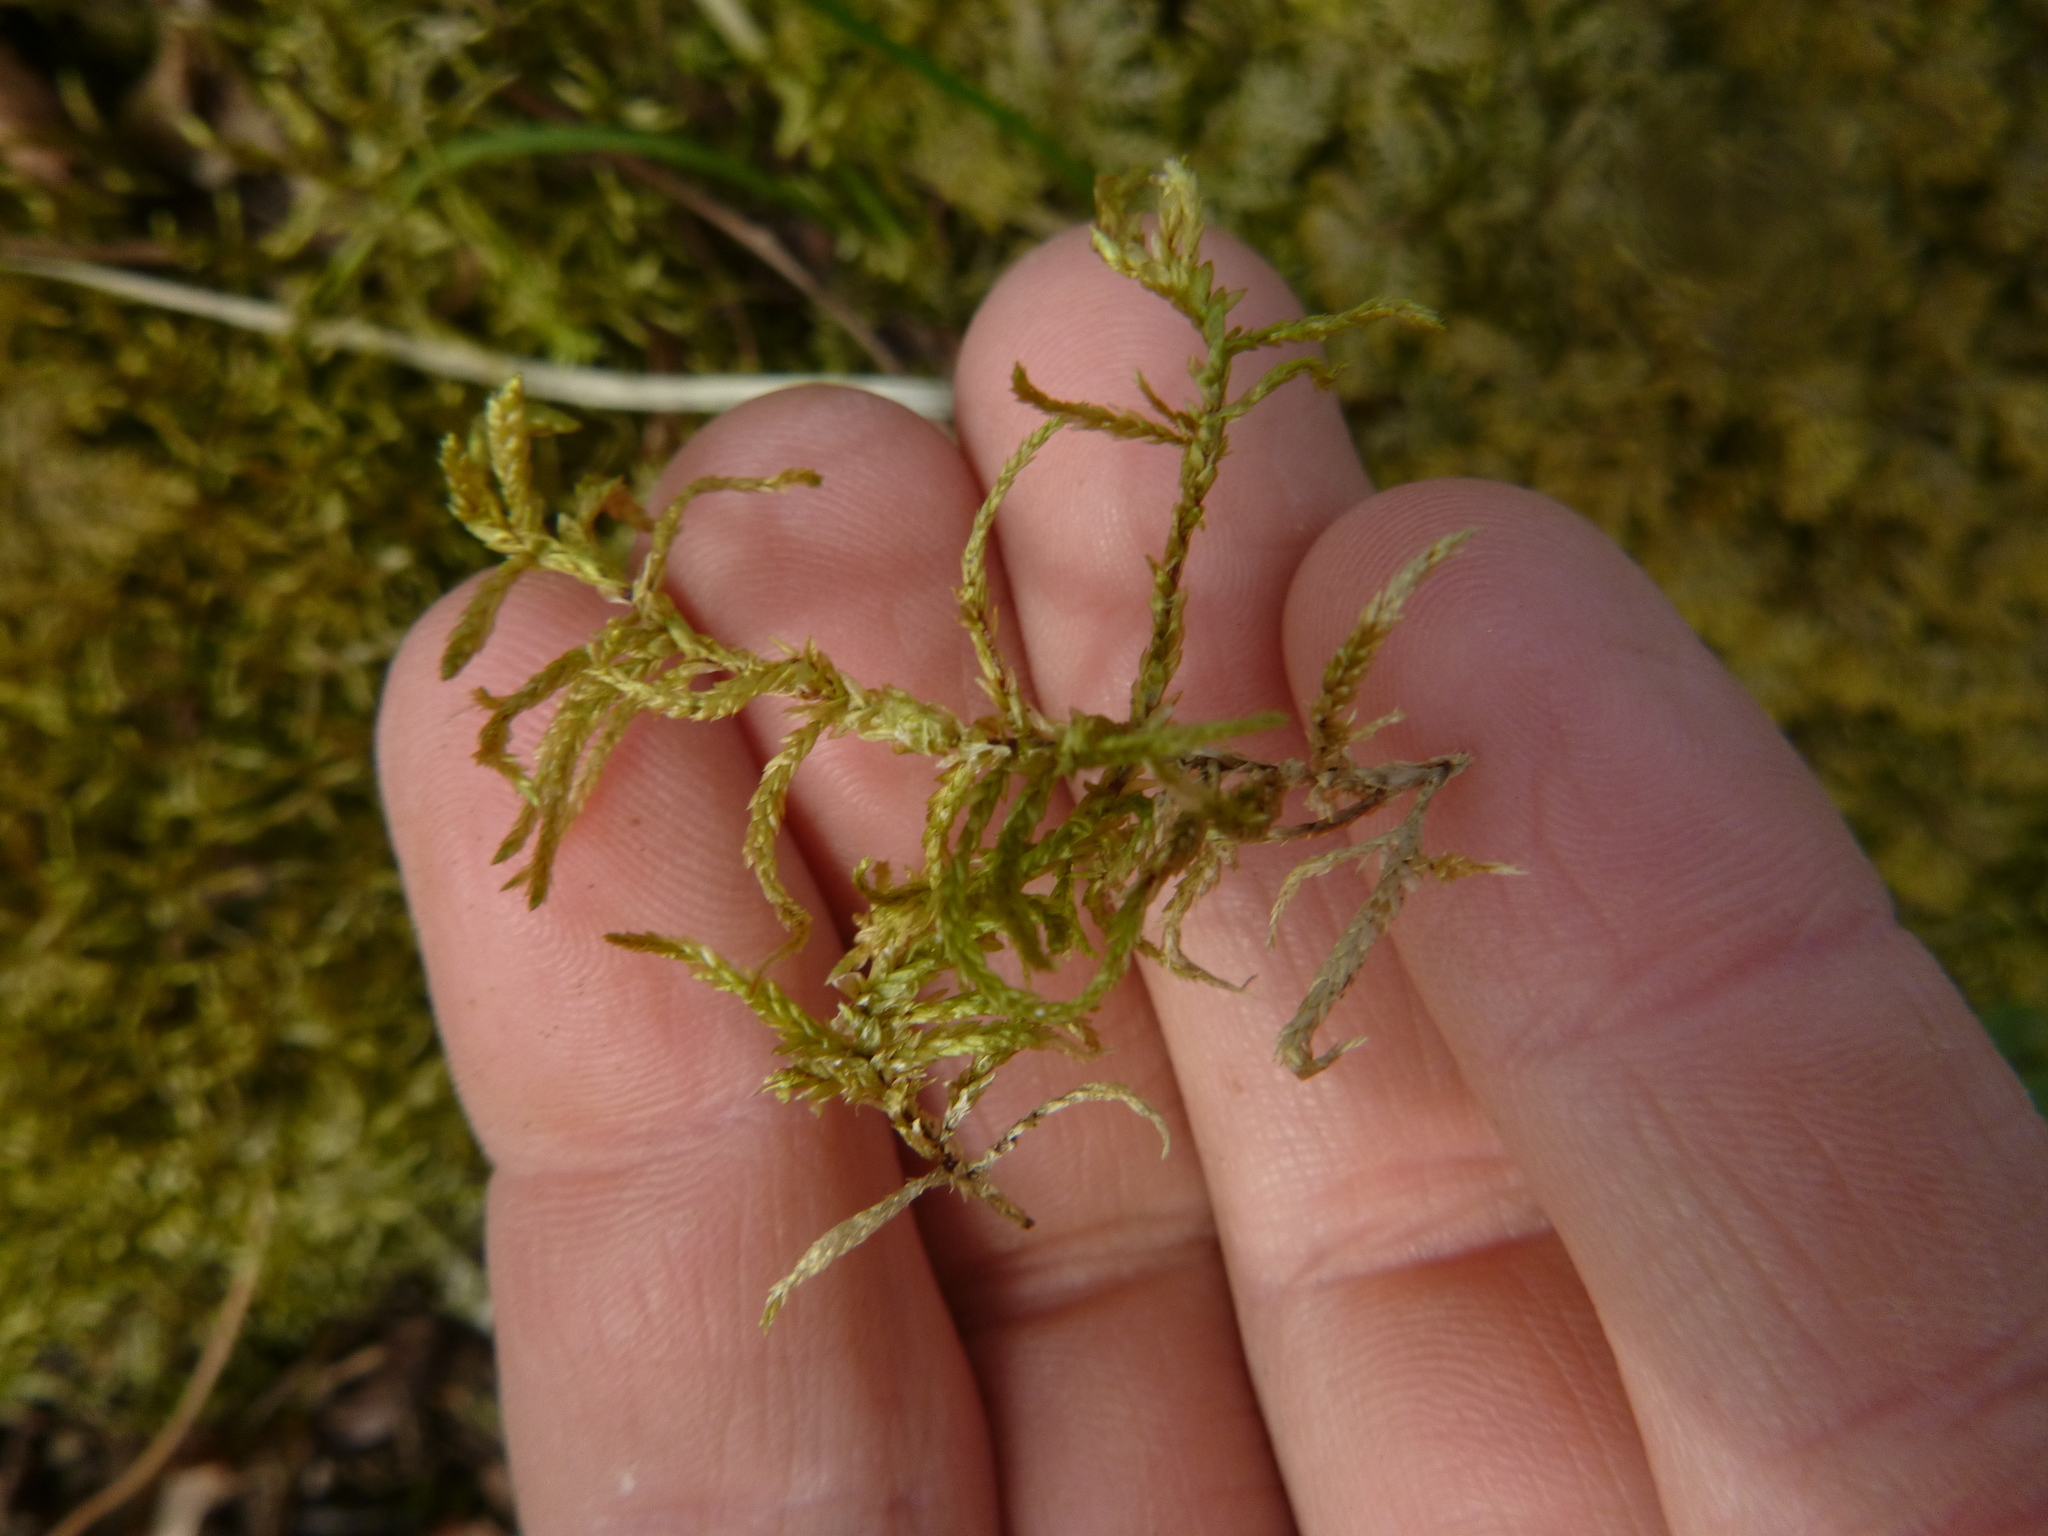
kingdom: Plantae
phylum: Bryophyta
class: Bryopsida
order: Hypnales
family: Hylocomiaceae
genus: Pleurozium
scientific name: Pleurozium schreberi
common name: Red-stemmed feather moss
